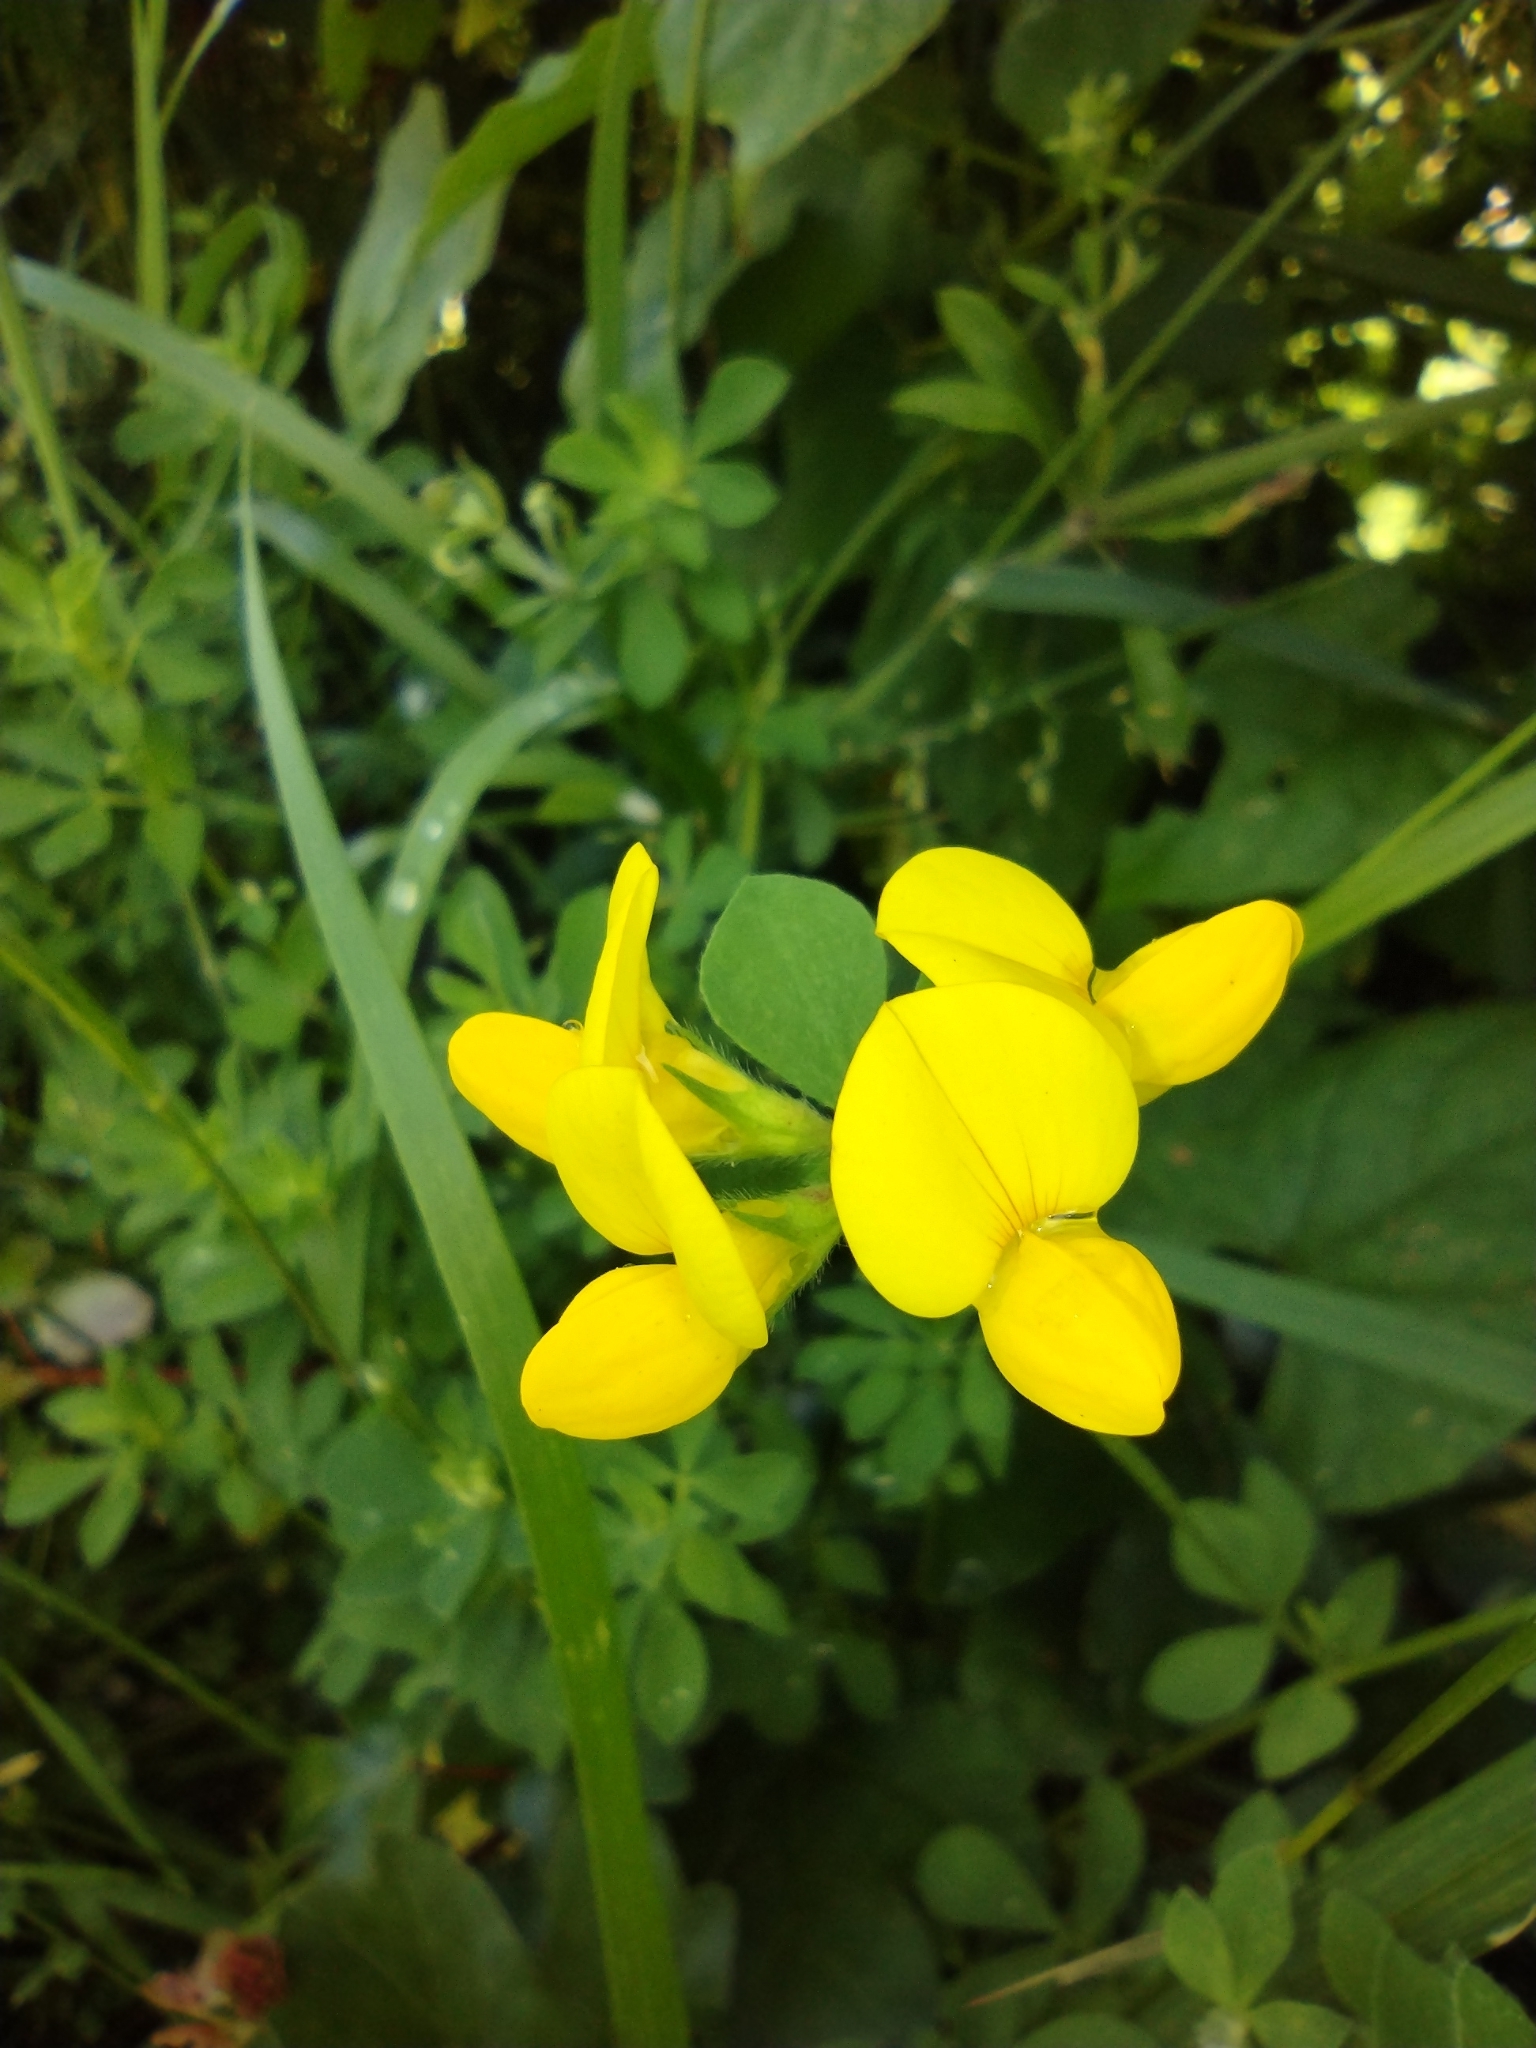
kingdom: Plantae
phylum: Tracheophyta
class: Magnoliopsida
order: Fabales
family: Fabaceae
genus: Lotus
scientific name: Lotus corniculatus
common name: Common bird's-foot-trefoil
